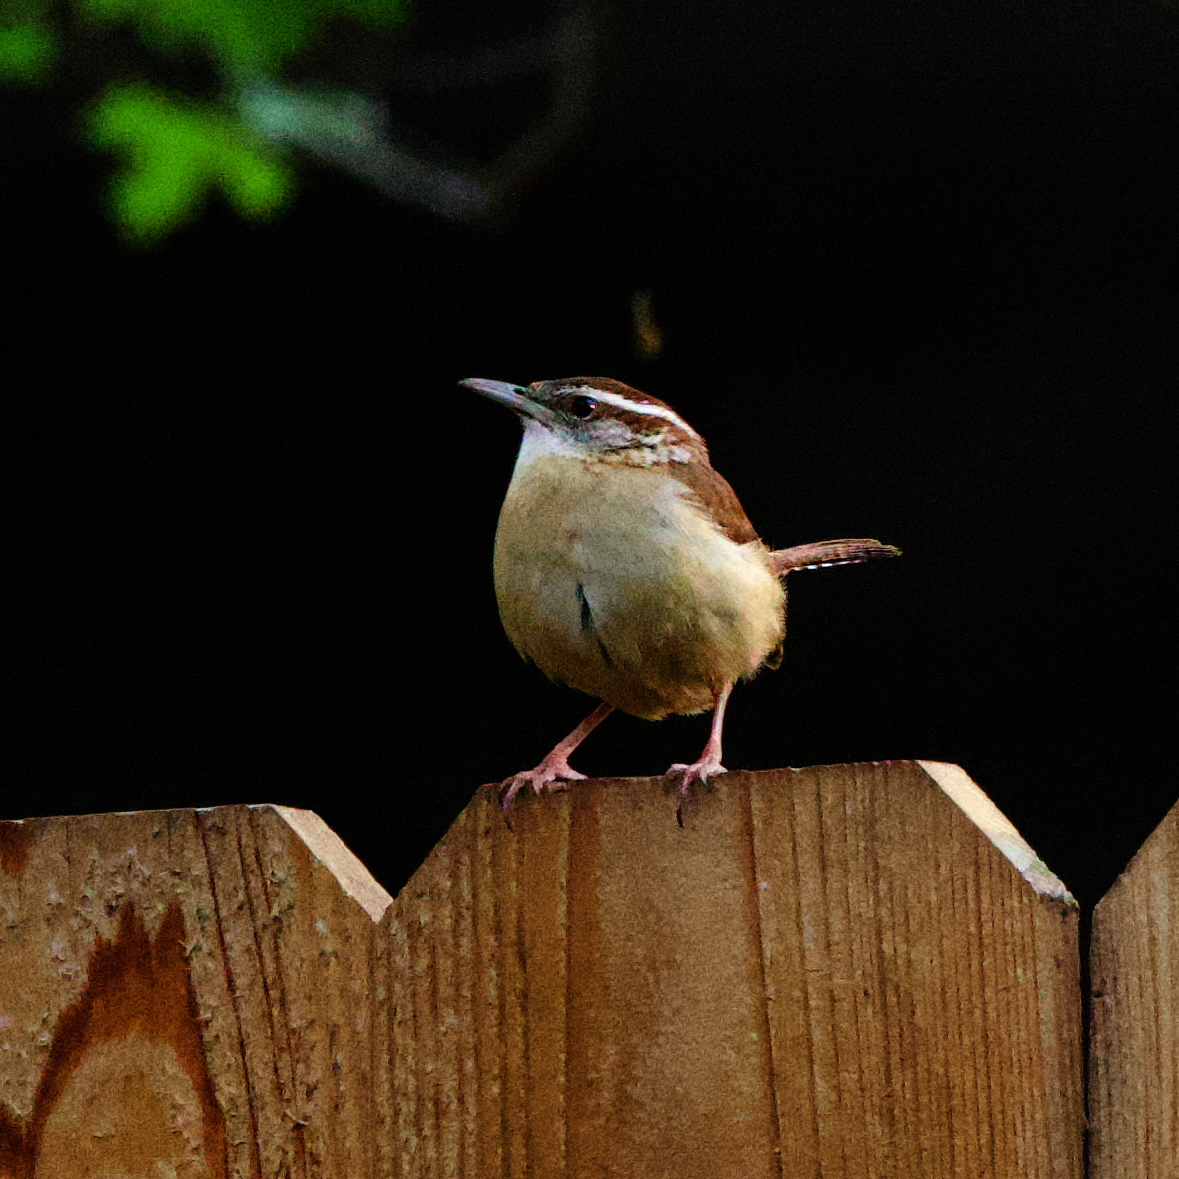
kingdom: Animalia
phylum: Chordata
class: Aves
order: Passeriformes
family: Troglodytidae
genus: Thryothorus
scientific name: Thryothorus ludovicianus
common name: Carolina wren
